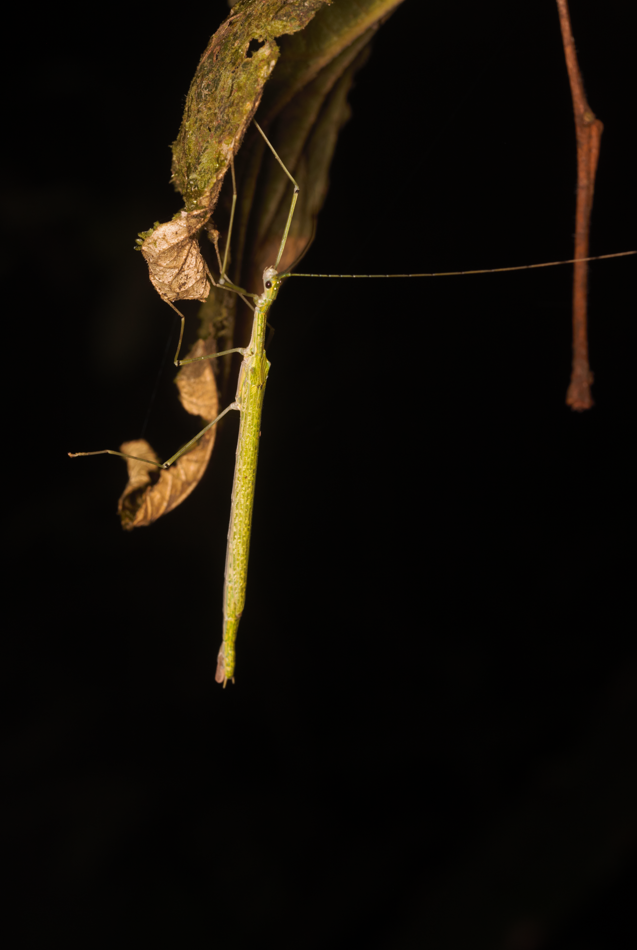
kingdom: Animalia
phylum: Arthropoda
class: Insecta
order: Phasmida
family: Pseudophasmatidae
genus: Cesaphasma
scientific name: Cesaphasma servillei
